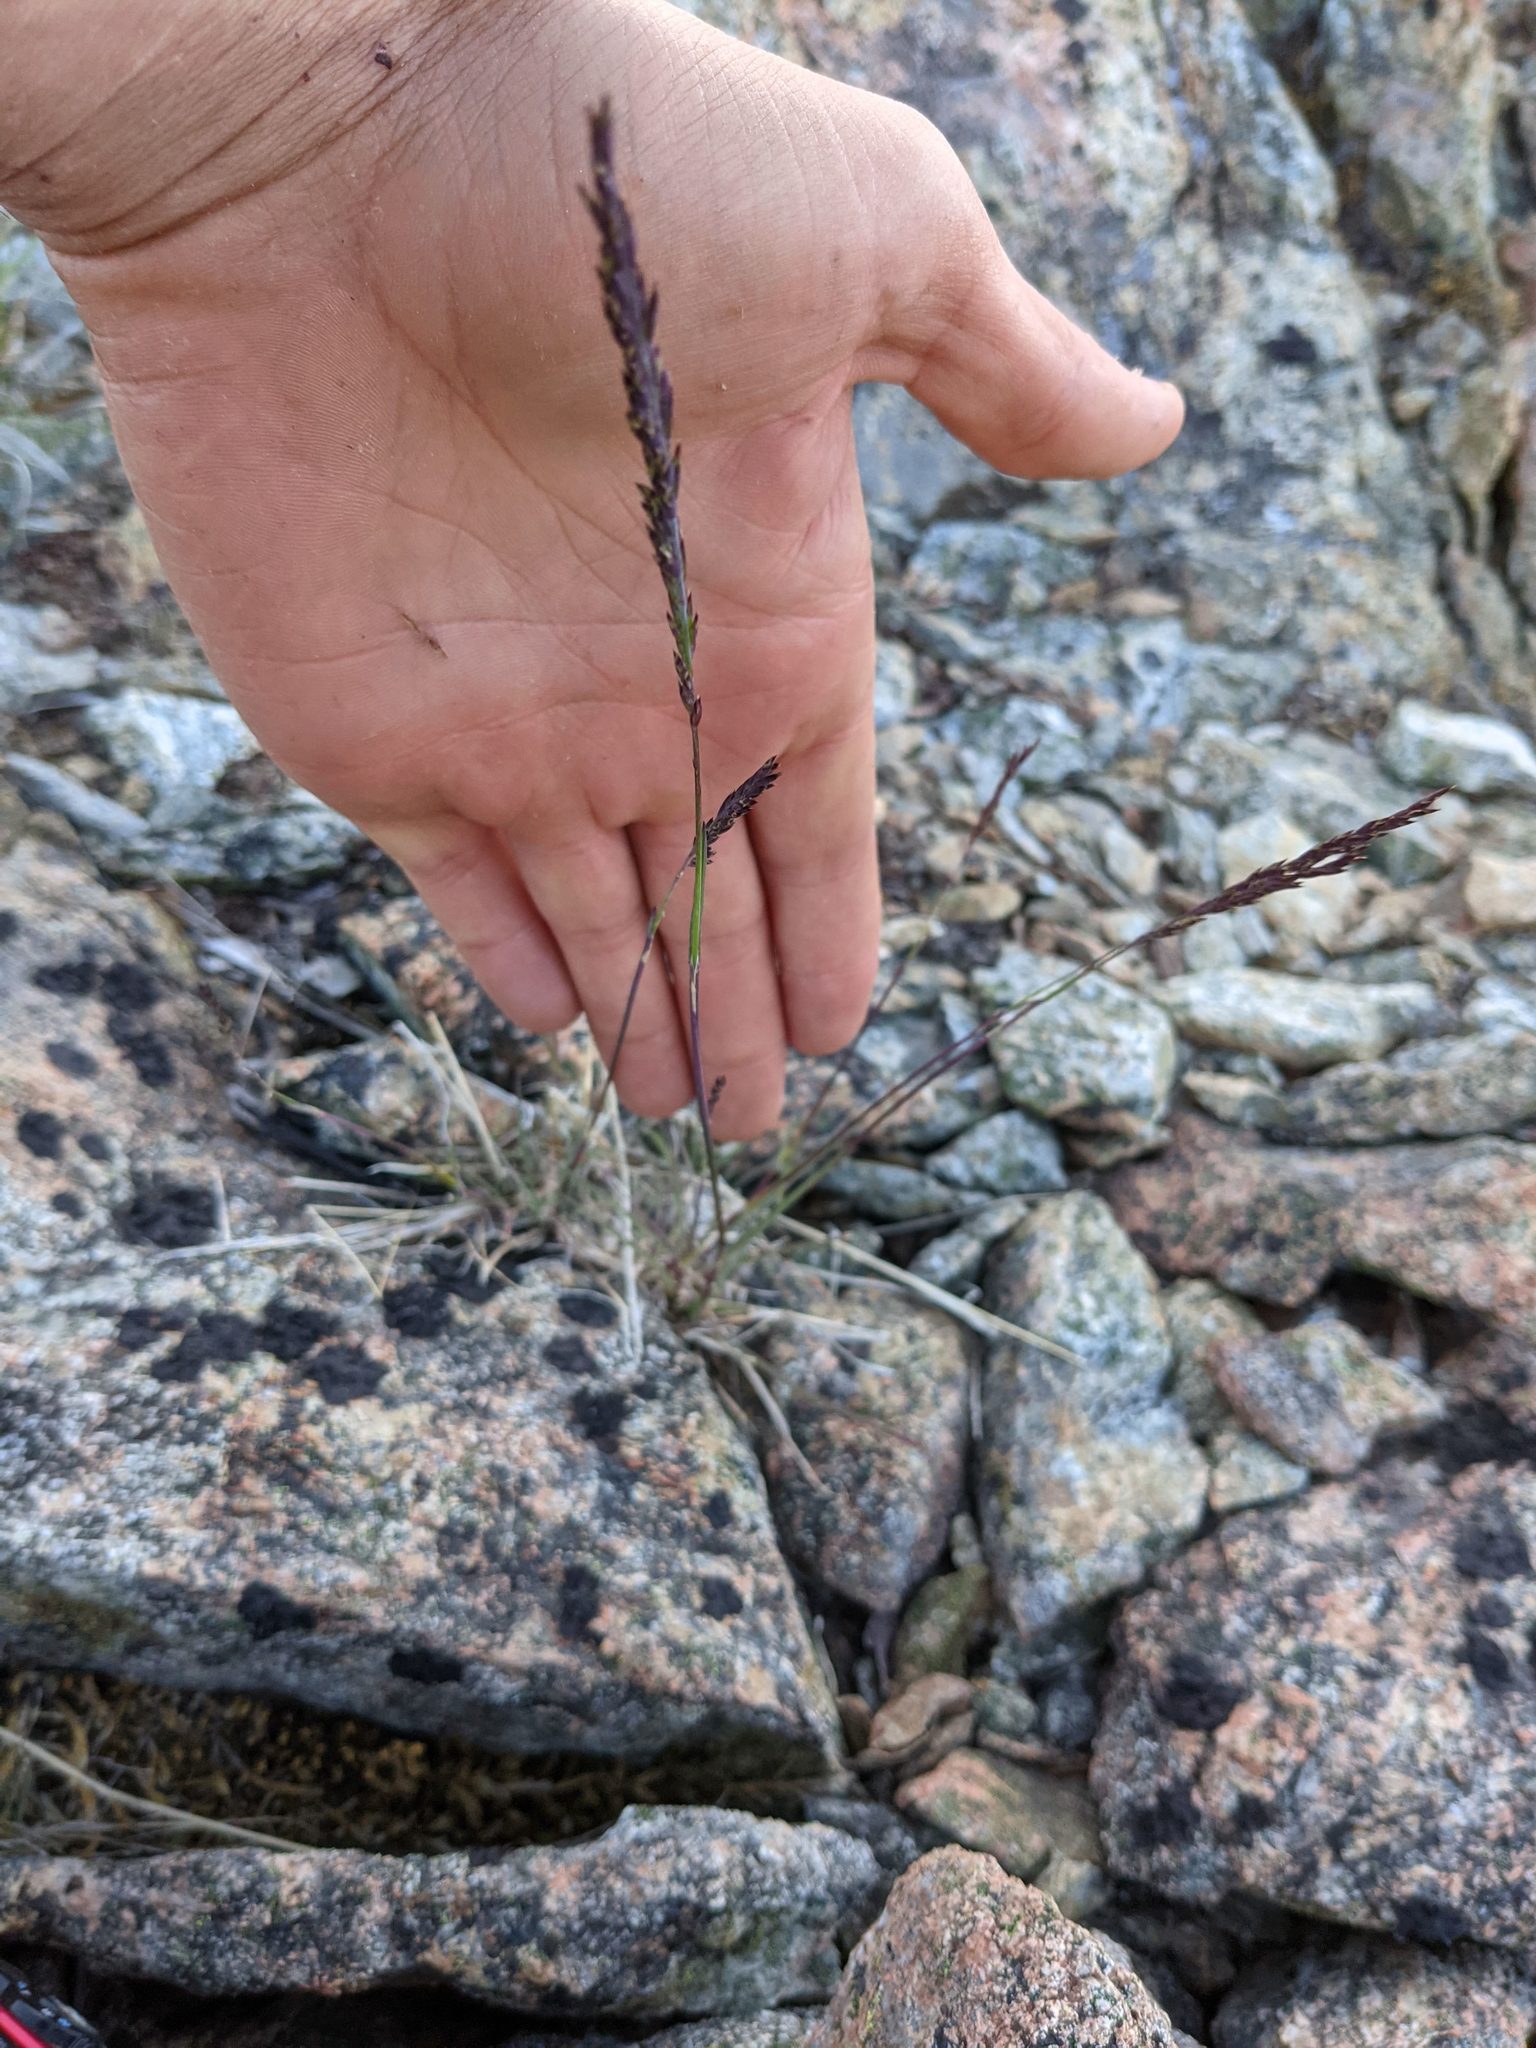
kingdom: Plantae
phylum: Tracheophyta
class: Liliopsida
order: Poales
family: Poaceae
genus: Poa
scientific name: Poa secunda
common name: Sandberg bluegrass
